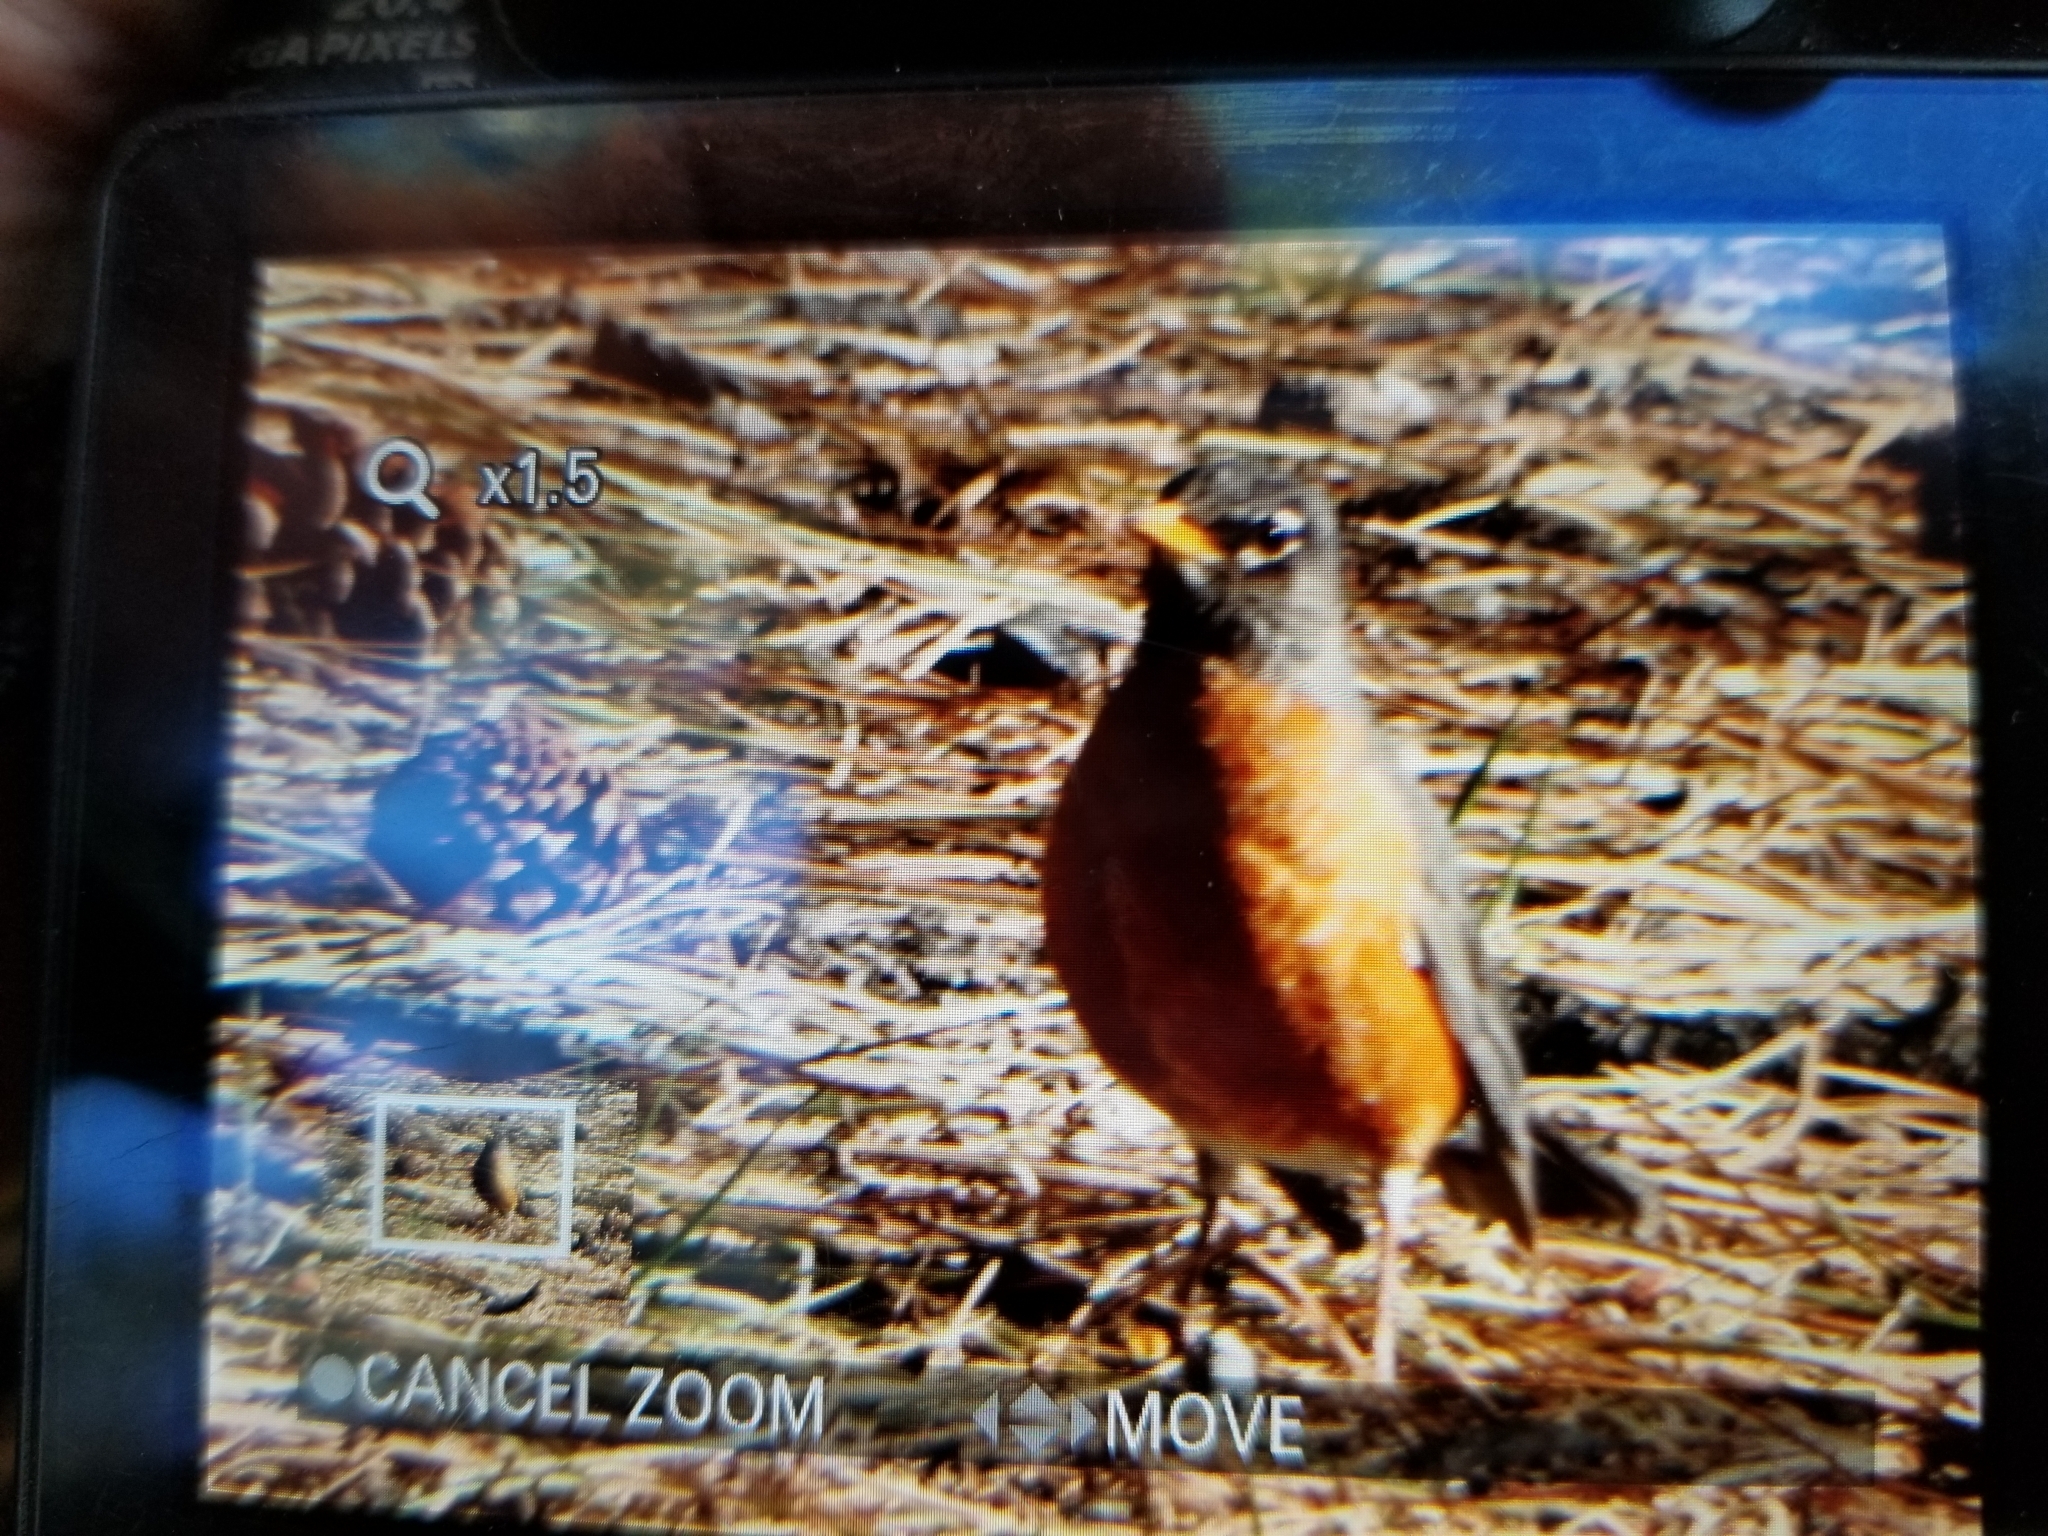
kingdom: Animalia
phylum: Chordata
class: Aves
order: Passeriformes
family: Turdidae
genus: Turdus
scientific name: Turdus migratorius
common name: American robin
